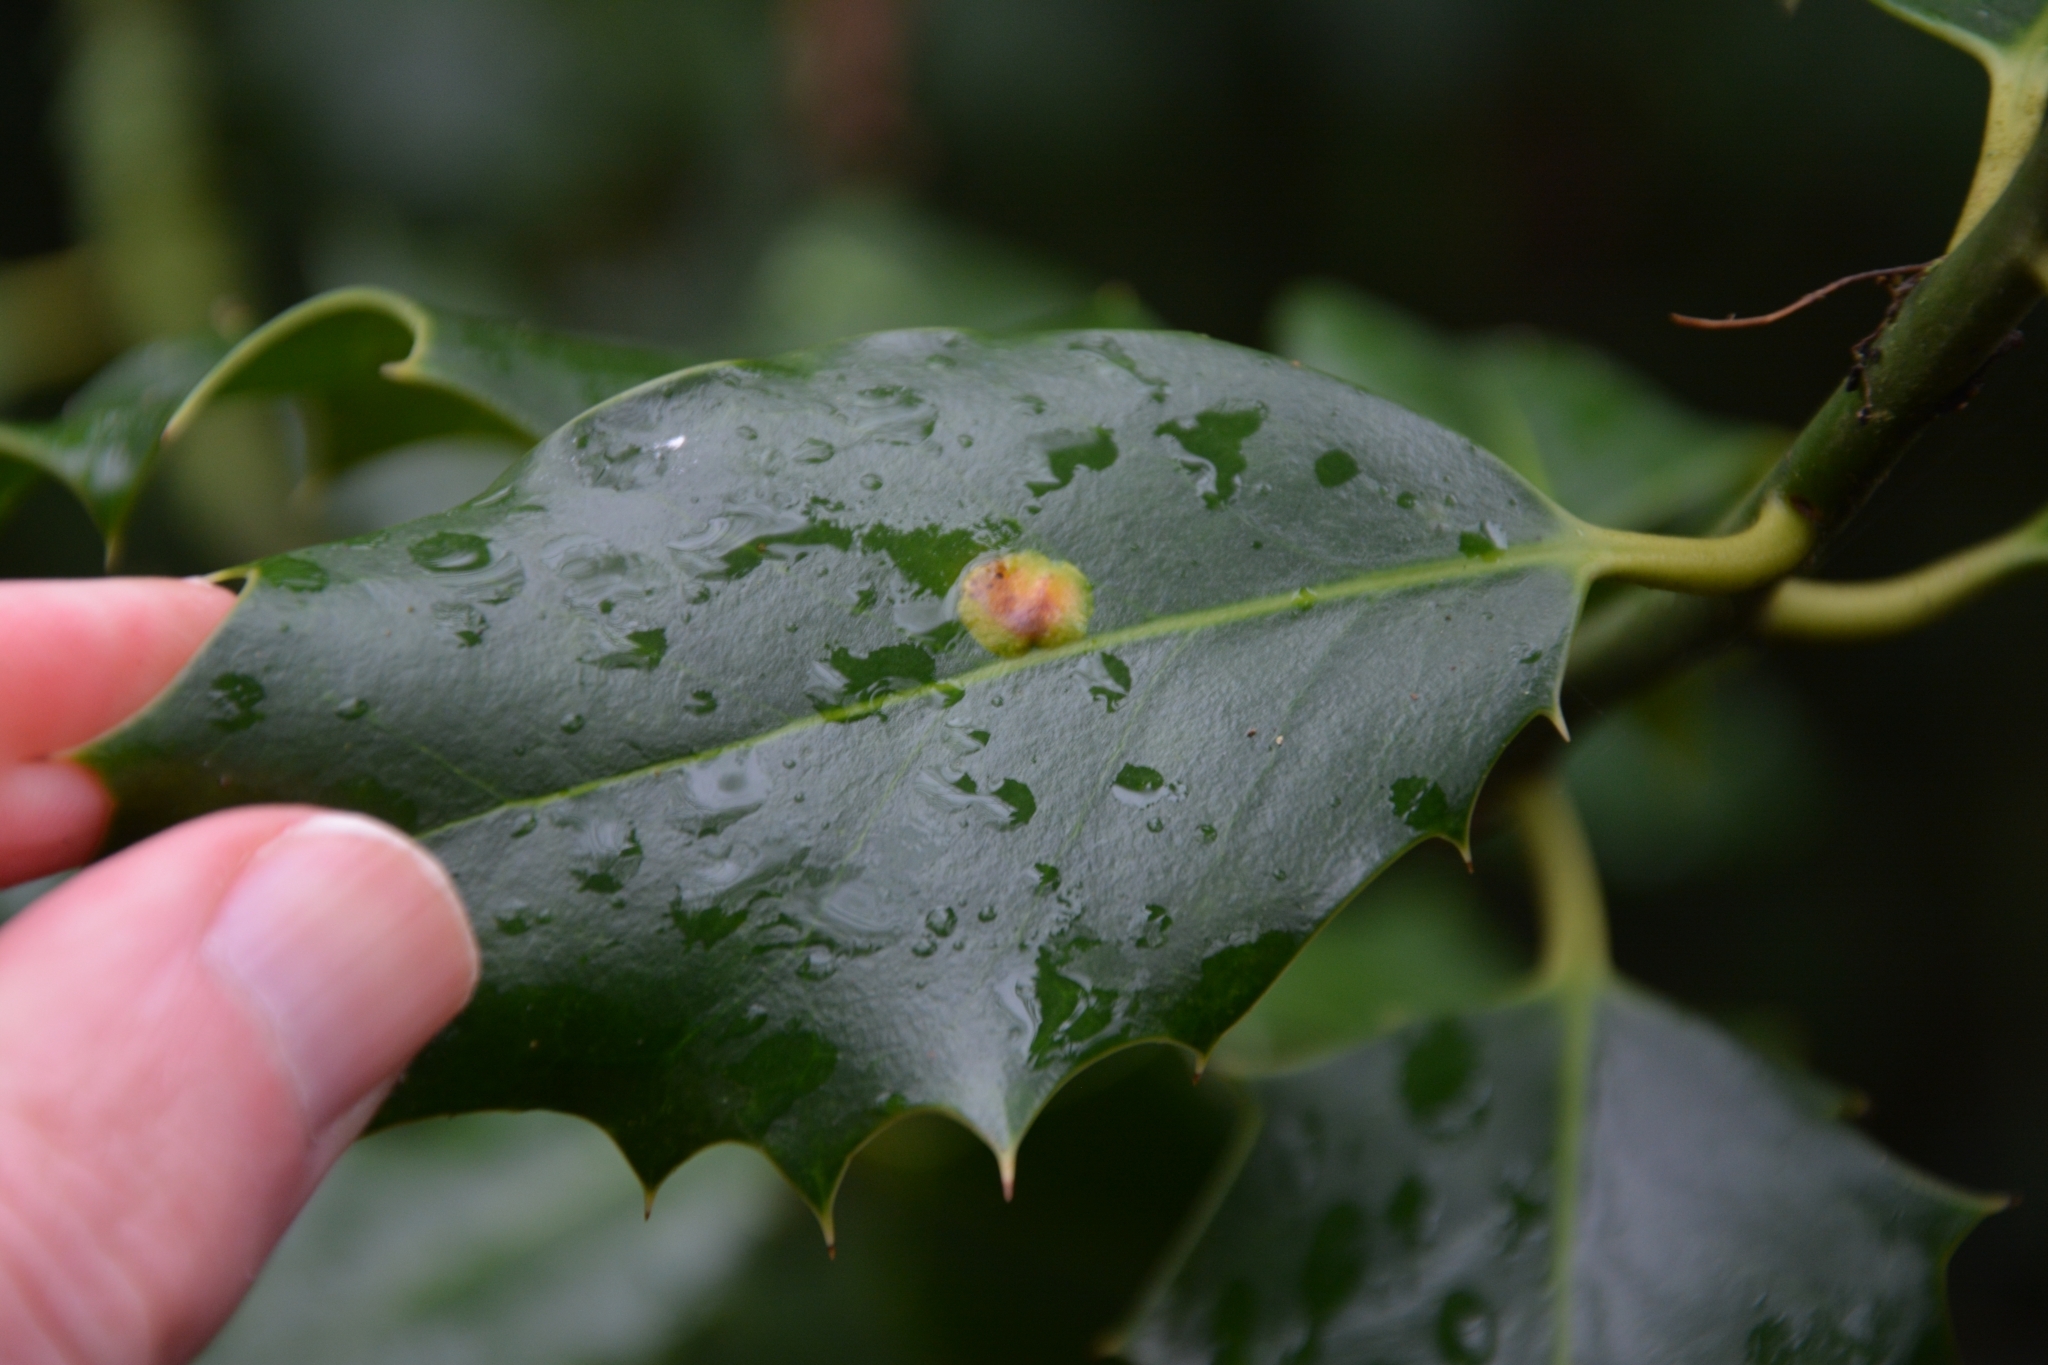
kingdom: Animalia
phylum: Arthropoda
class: Insecta
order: Diptera
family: Agromyzidae
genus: Phytomyza
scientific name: Phytomyza ilicis
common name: Holly leafminer
